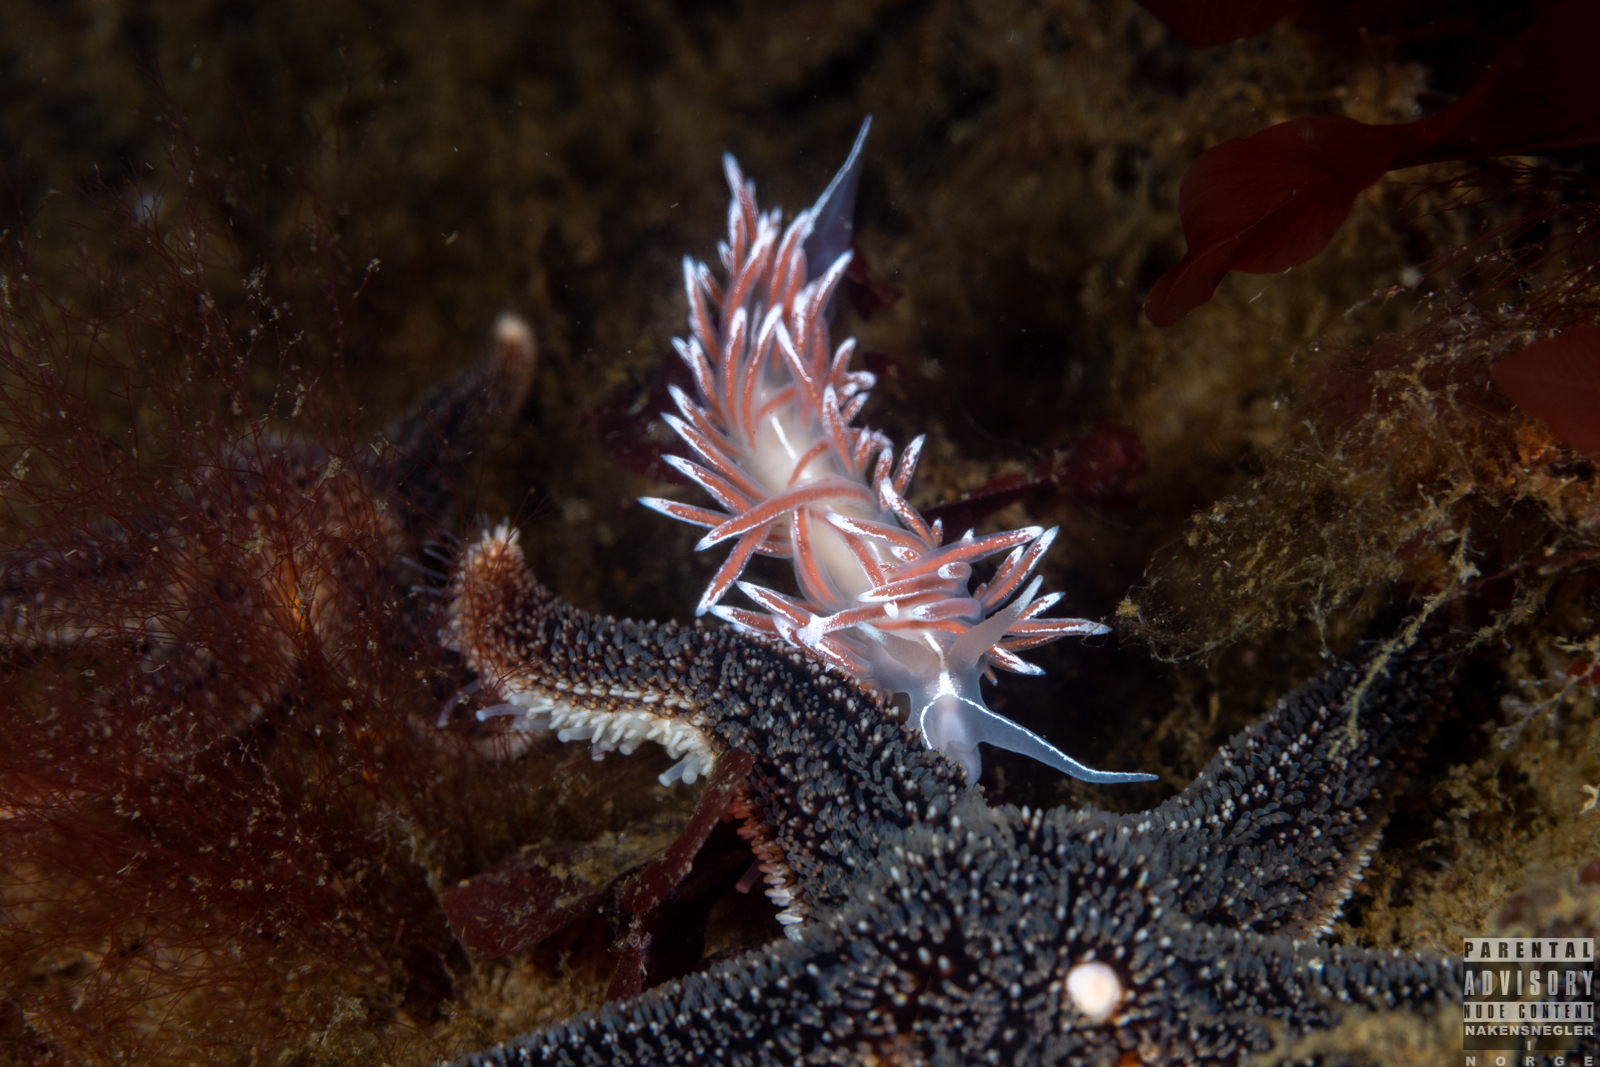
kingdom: Animalia
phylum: Mollusca
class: Gastropoda
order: Nudibranchia
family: Coryphellidae
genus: Coryphella
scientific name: Coryphella lineata
